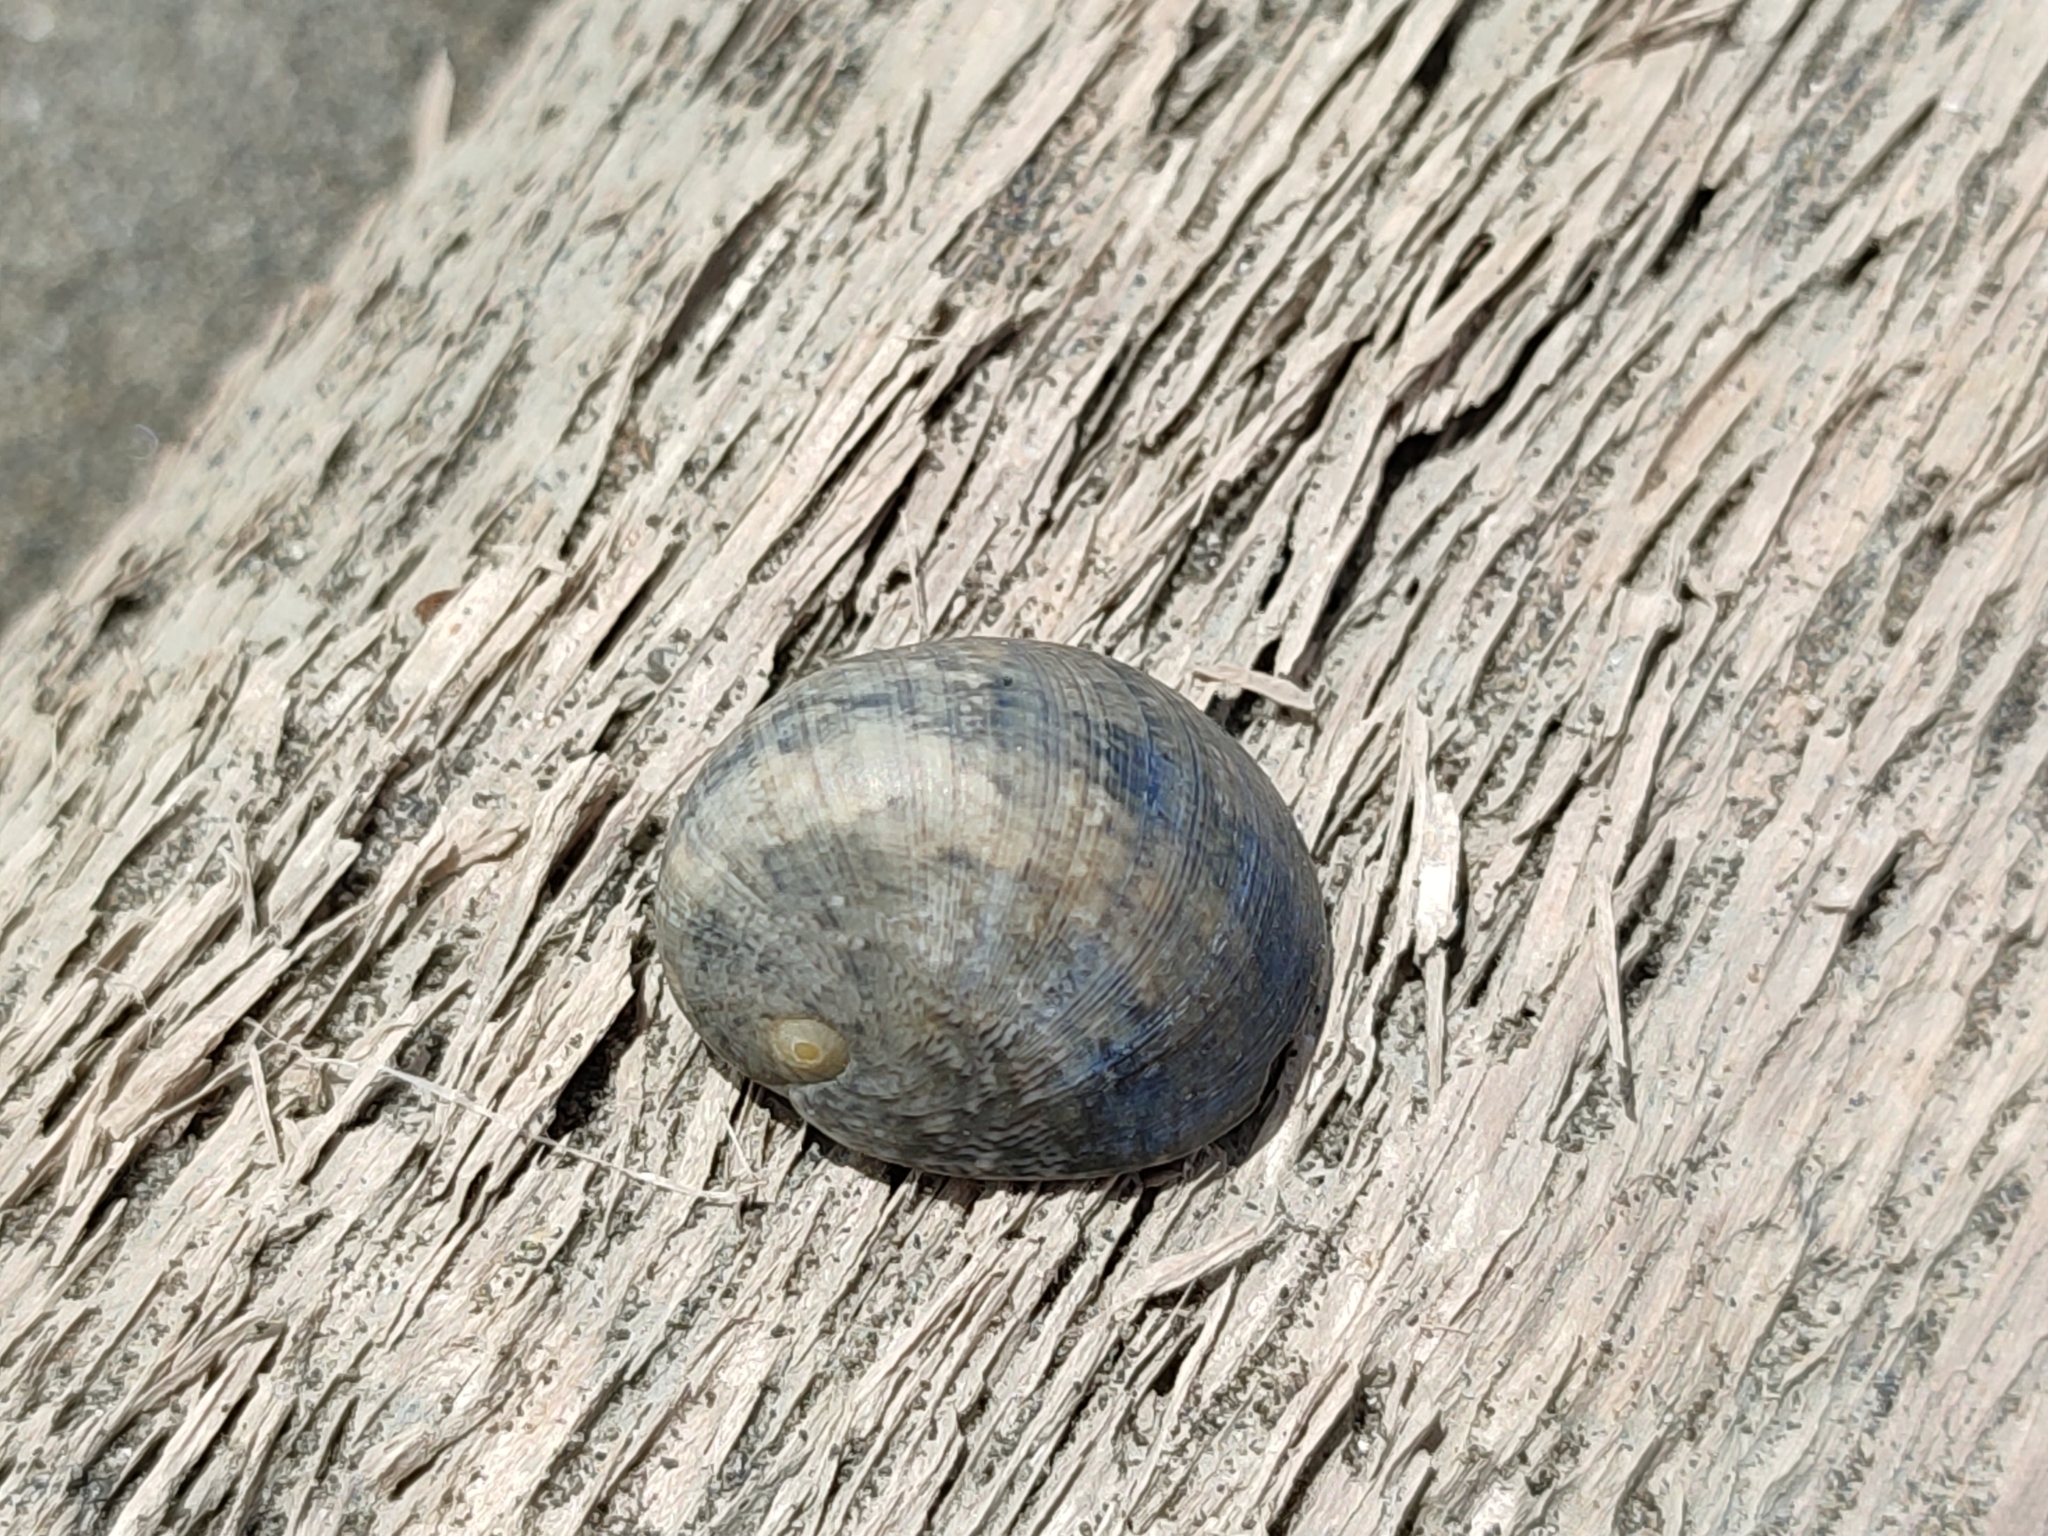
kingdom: Animalia
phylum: Mollusca
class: Gastropoda
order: Cycloneritida
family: Neritidae
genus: Nerita
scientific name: Nerita polita
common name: Polished nerite
